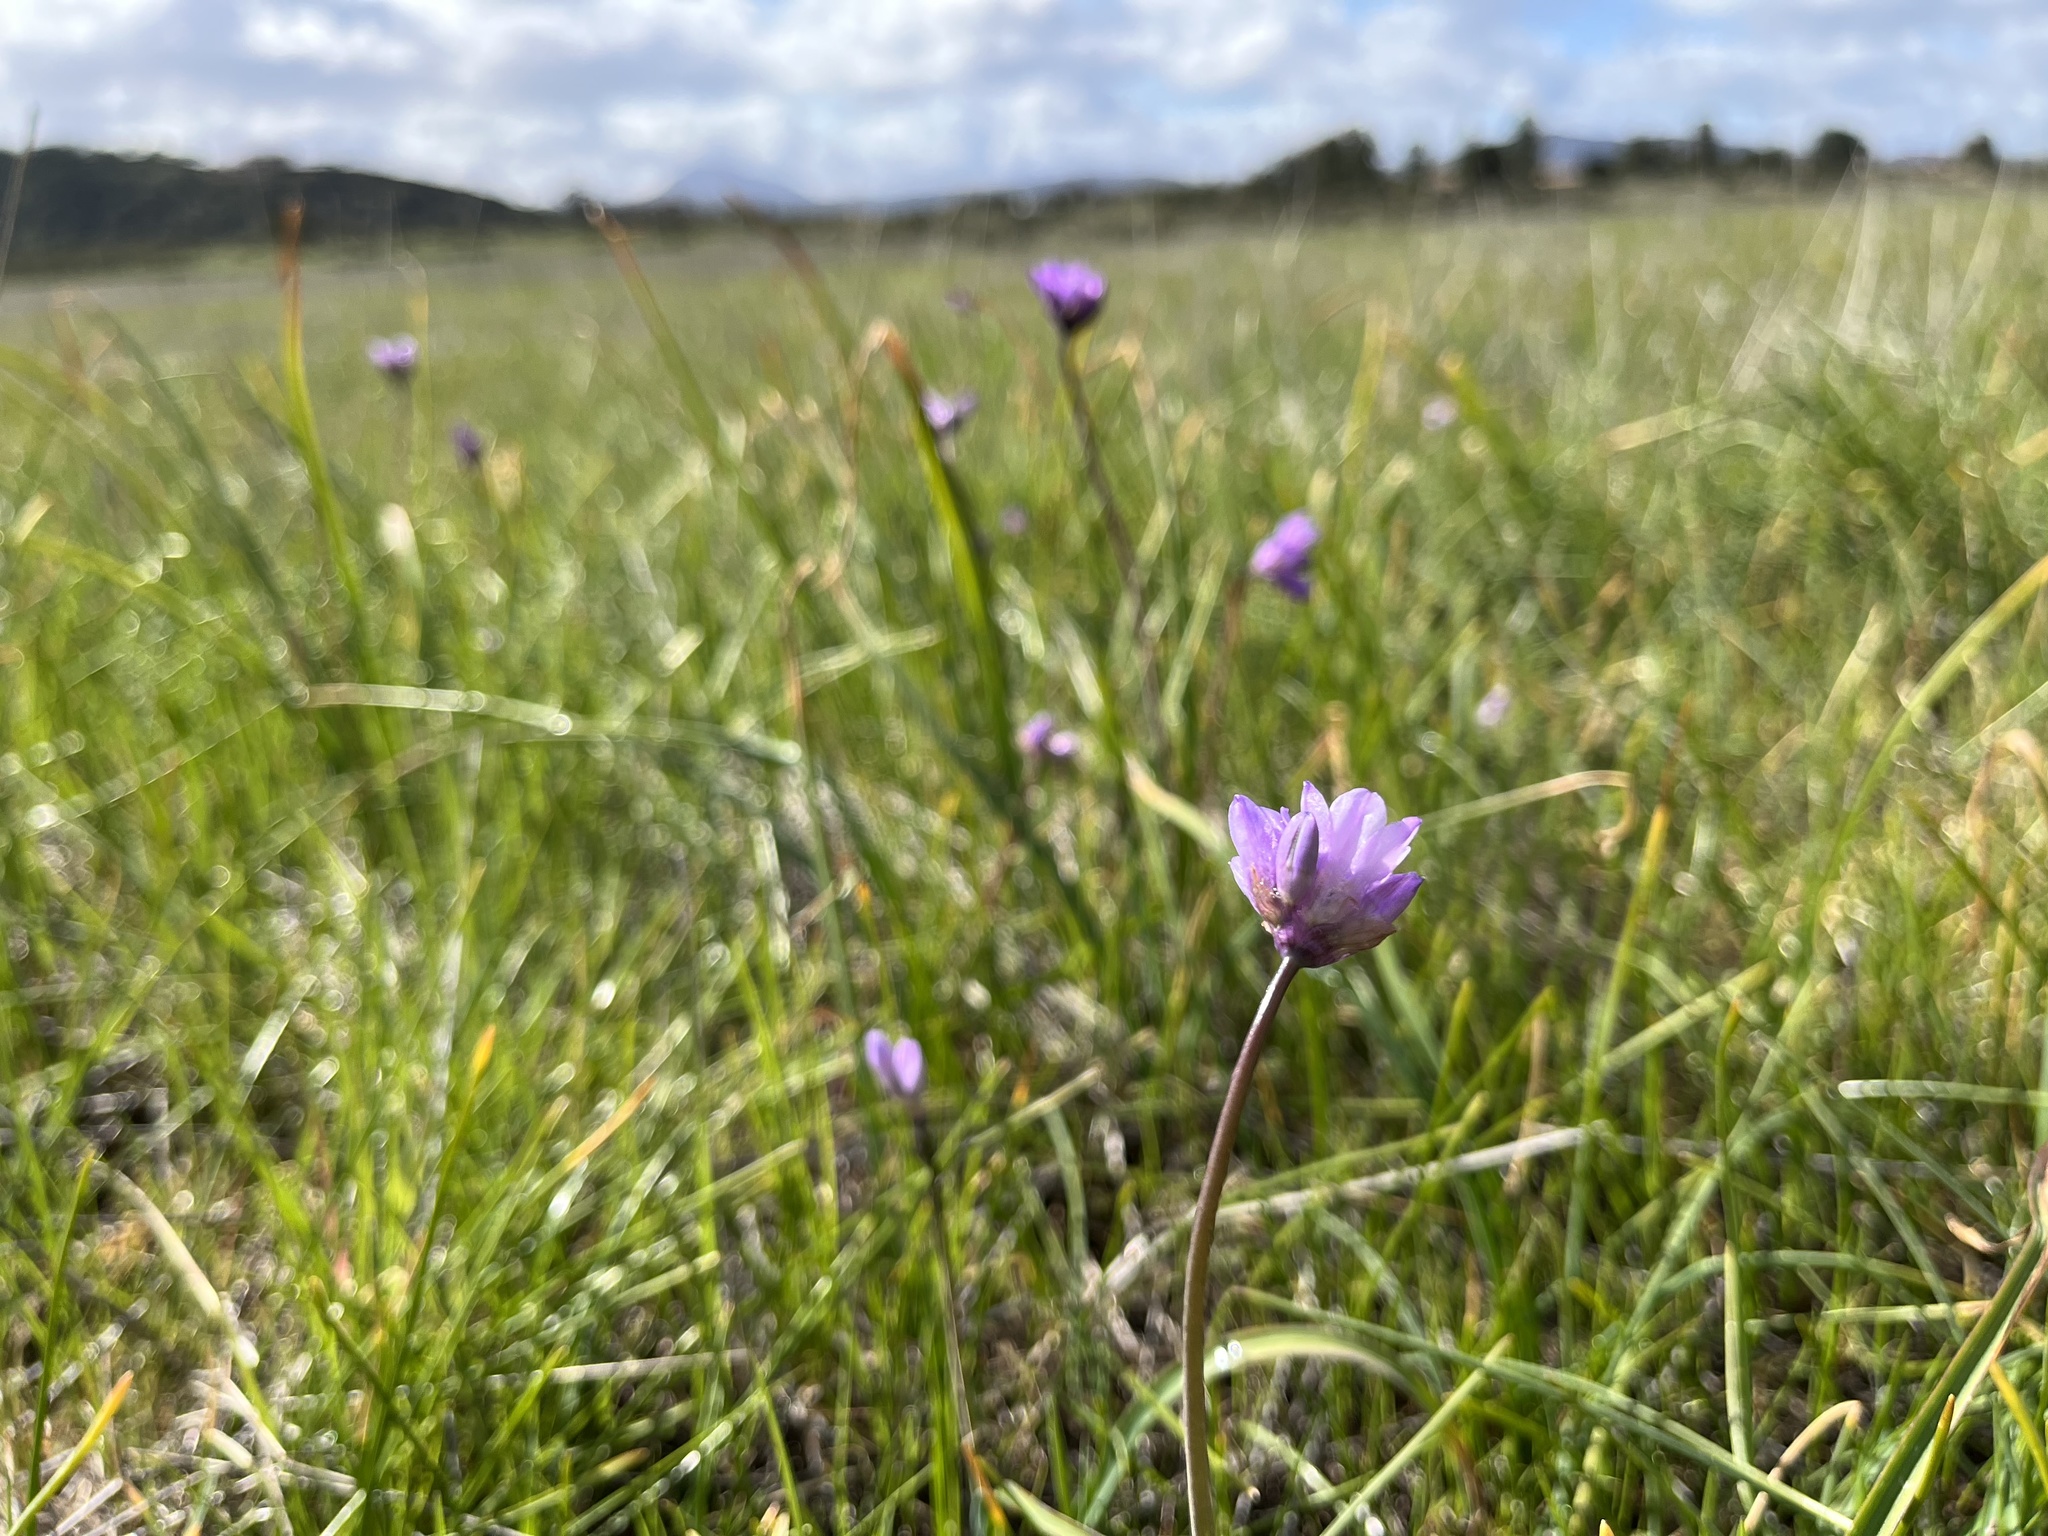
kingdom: Plantae
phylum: Tracheophyta
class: Liliopsida
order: Asparagales
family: Asparagaceae
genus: Dipterostemon
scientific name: Dipterostemon capitatus
